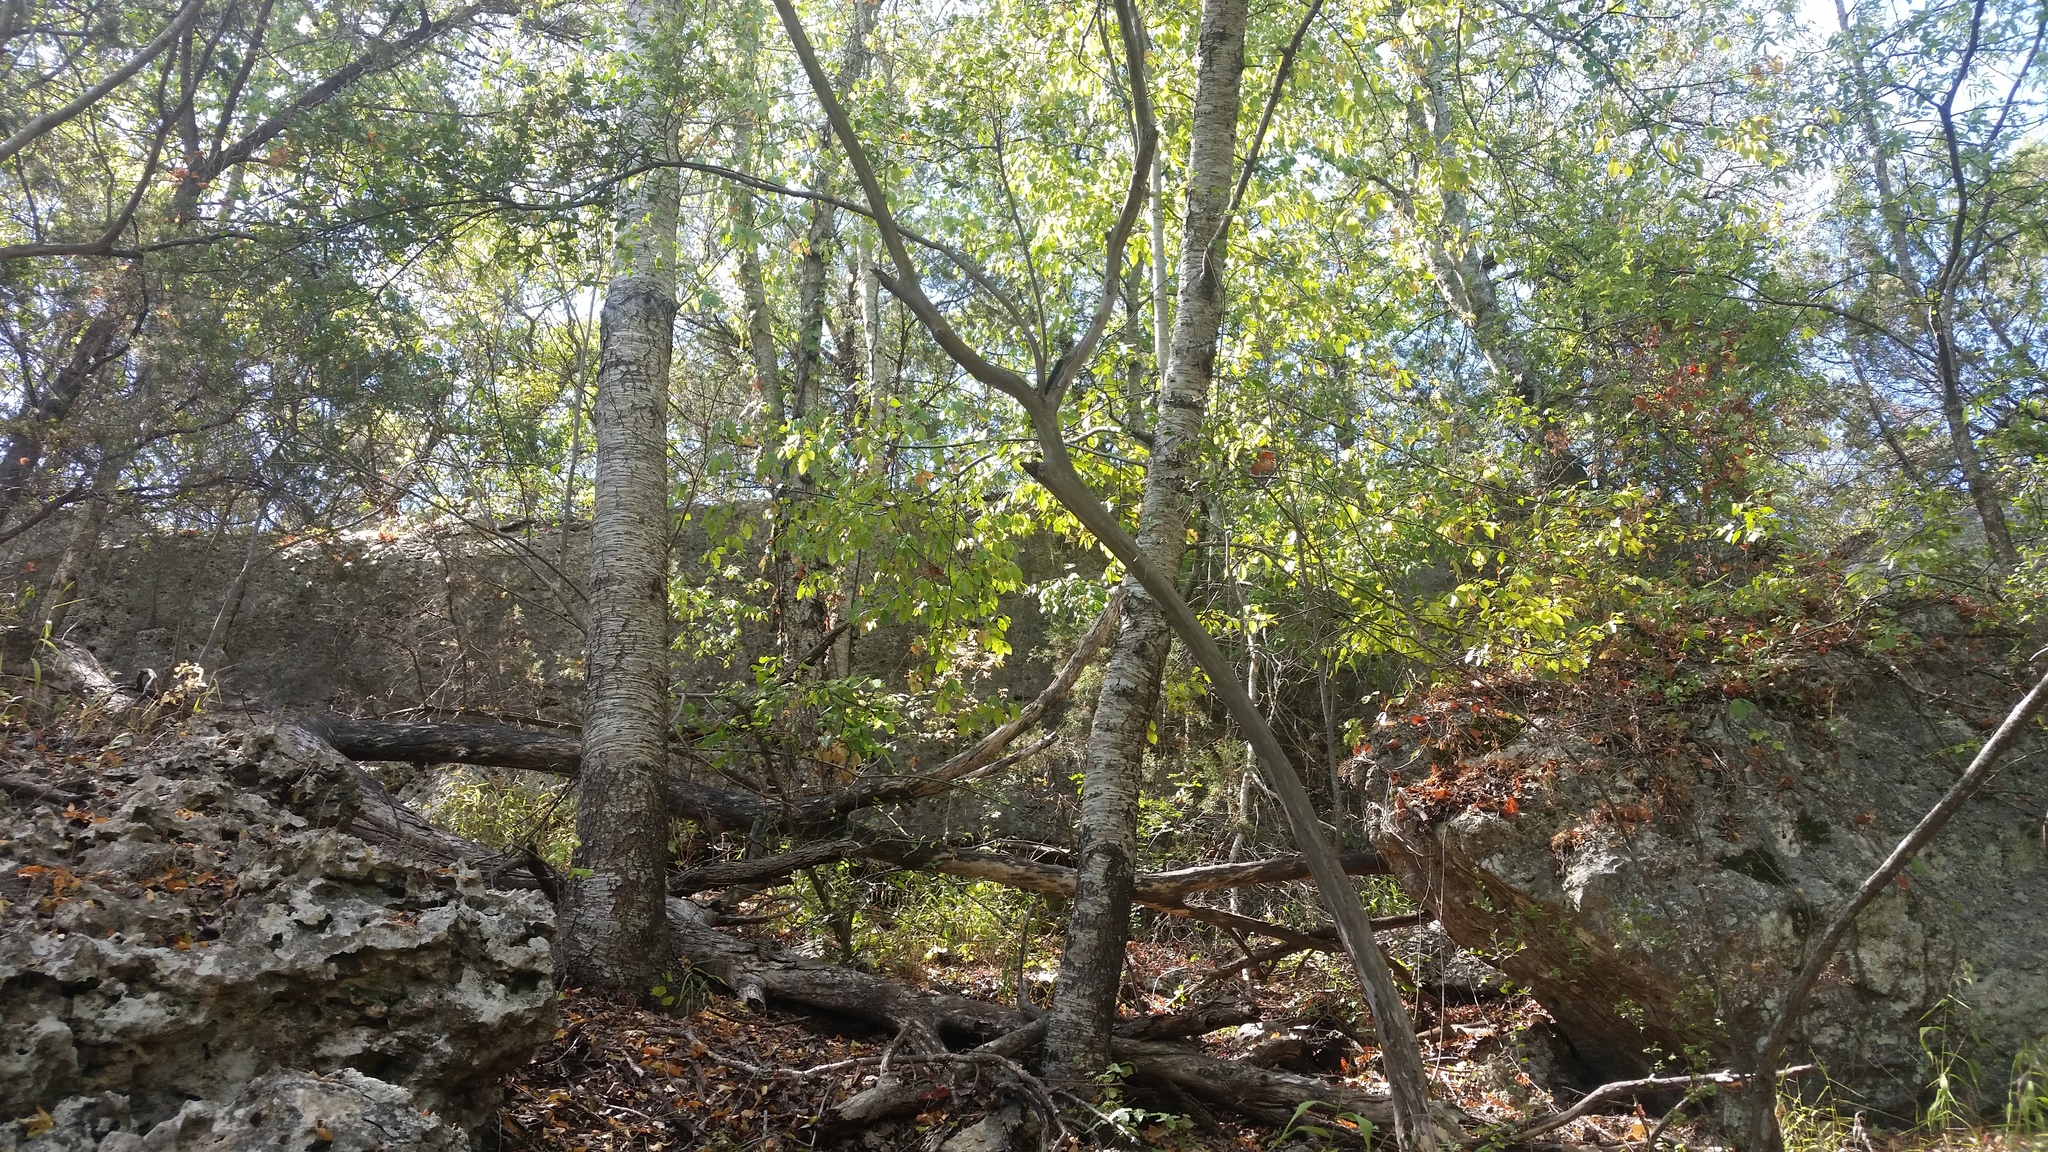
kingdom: Plantae
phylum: Tracheophyta
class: Magnoliopsida
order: Rosales
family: Rosaceae
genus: Prunus
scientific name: Prunus serotina
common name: Black cherry
